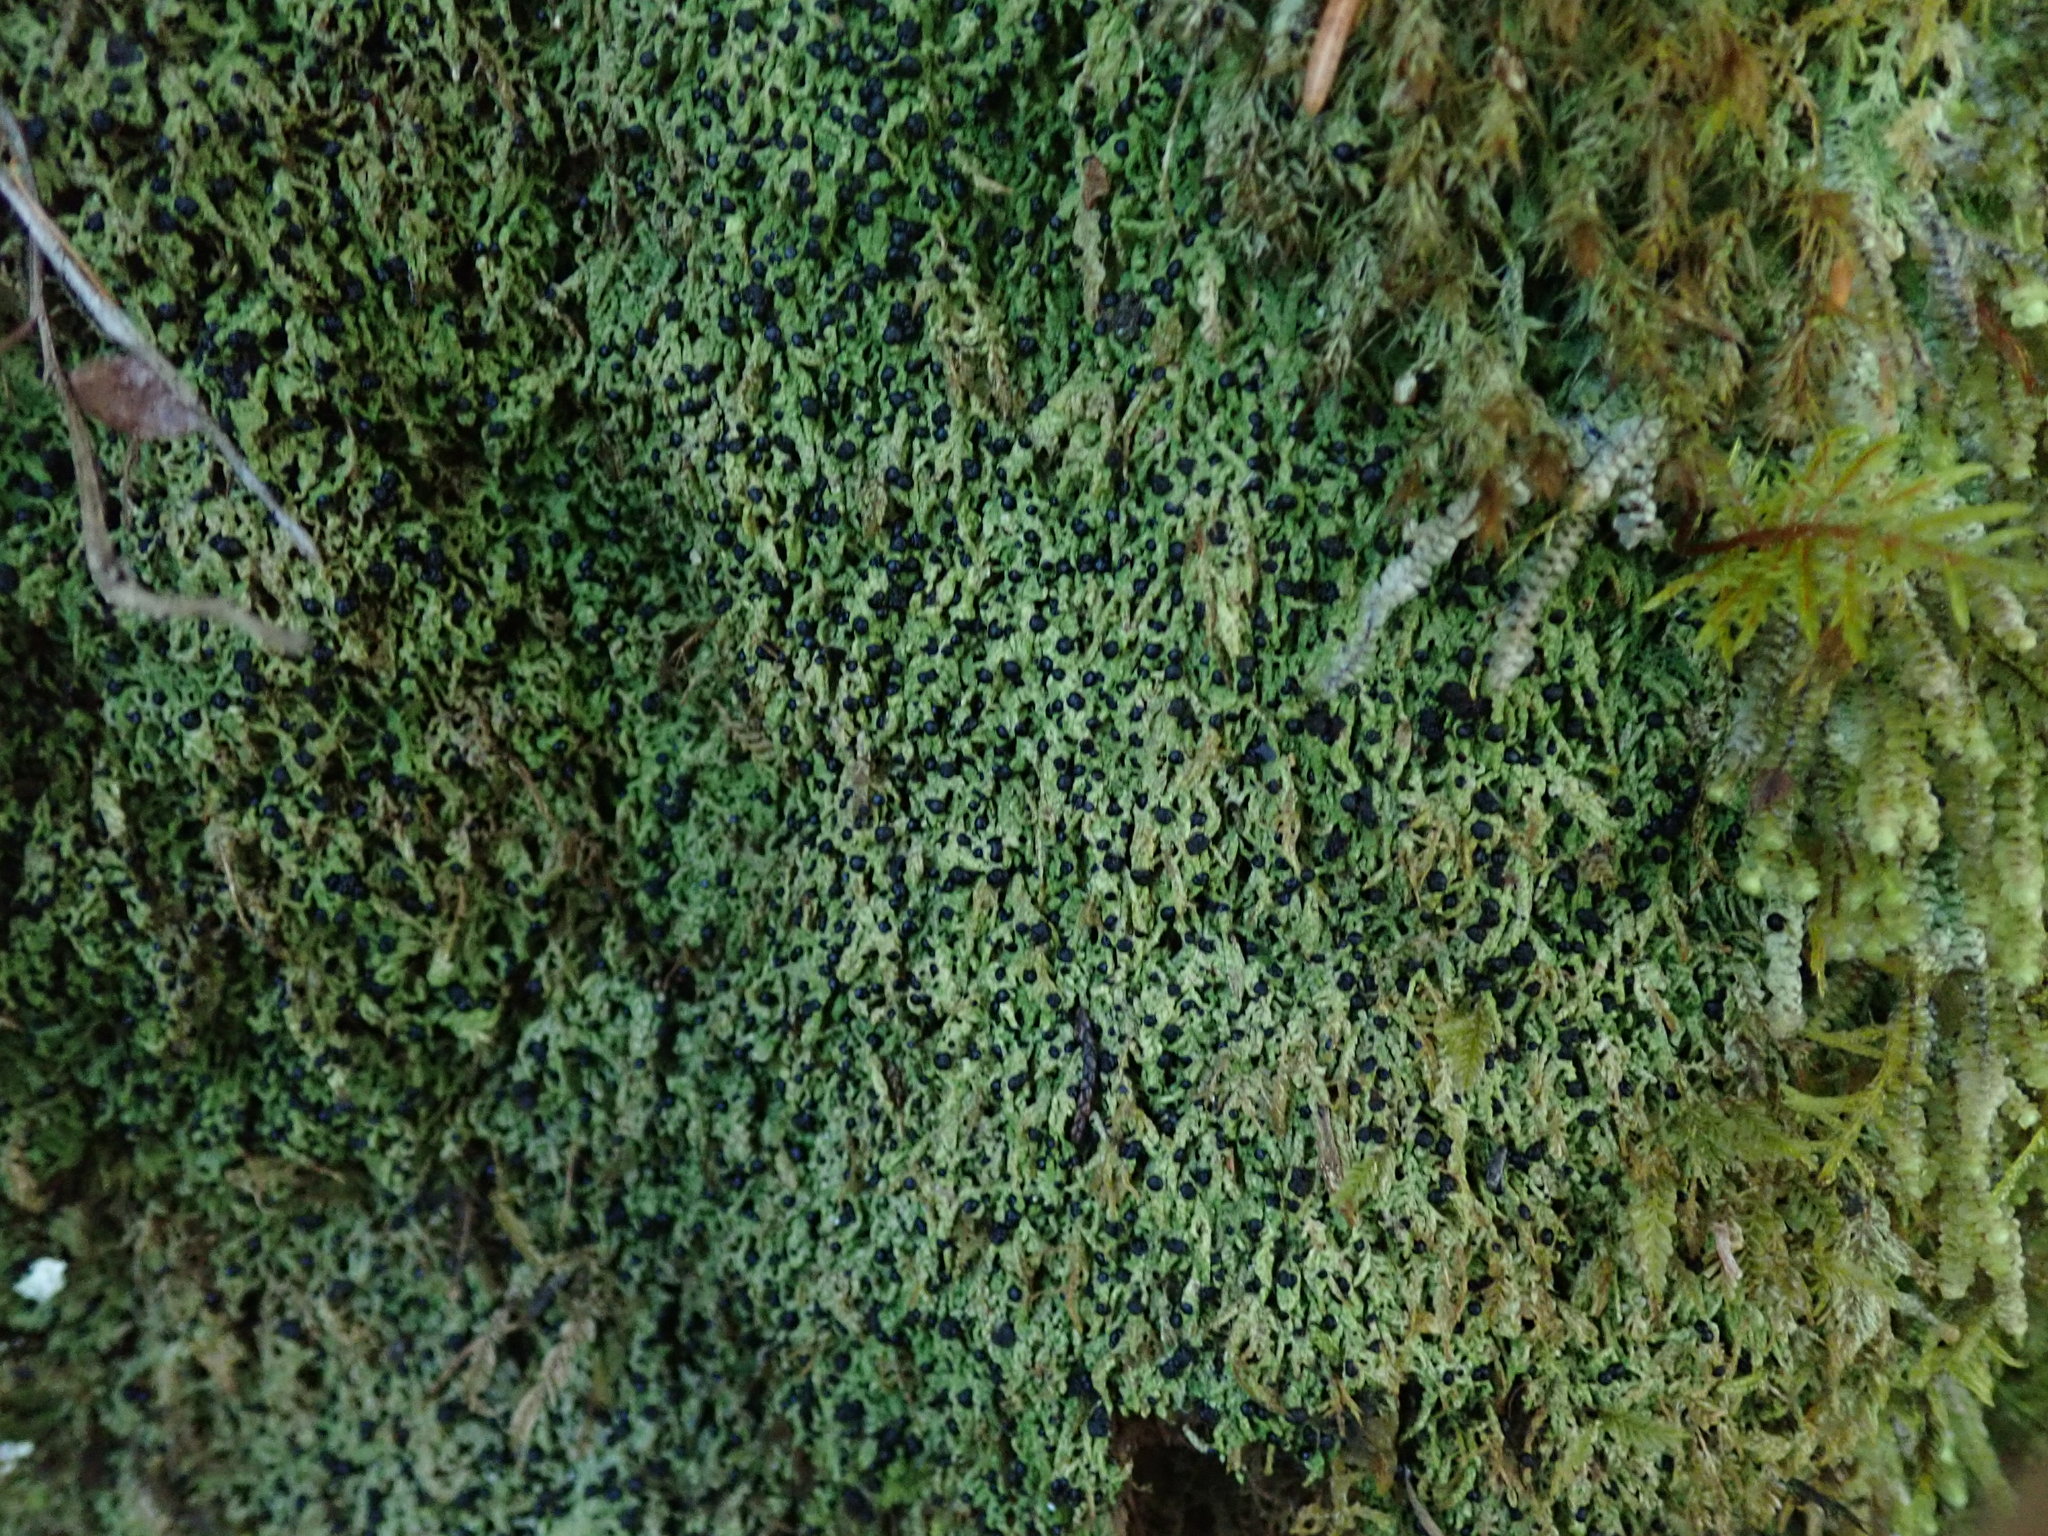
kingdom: Fungi
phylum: Ascomycota
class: Lecanoromycetes
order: Lecideales
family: Lecideaceae
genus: Bryobilimbia
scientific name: Bryobilimbia hypnorum
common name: Mossy dot lichen
